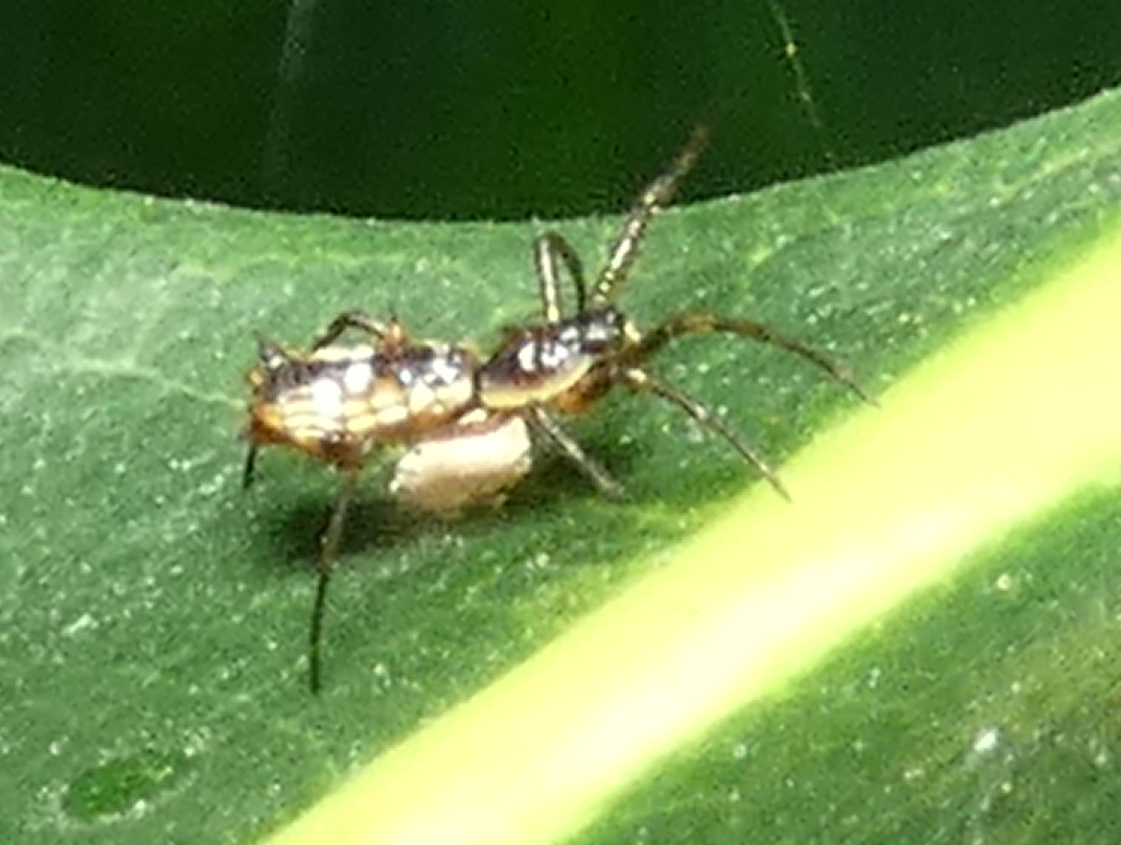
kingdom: Animalia
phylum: Arthropoda
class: Arachnida
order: Araneae
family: Araneidae
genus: Micrathena
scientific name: Micrathena fissispina
